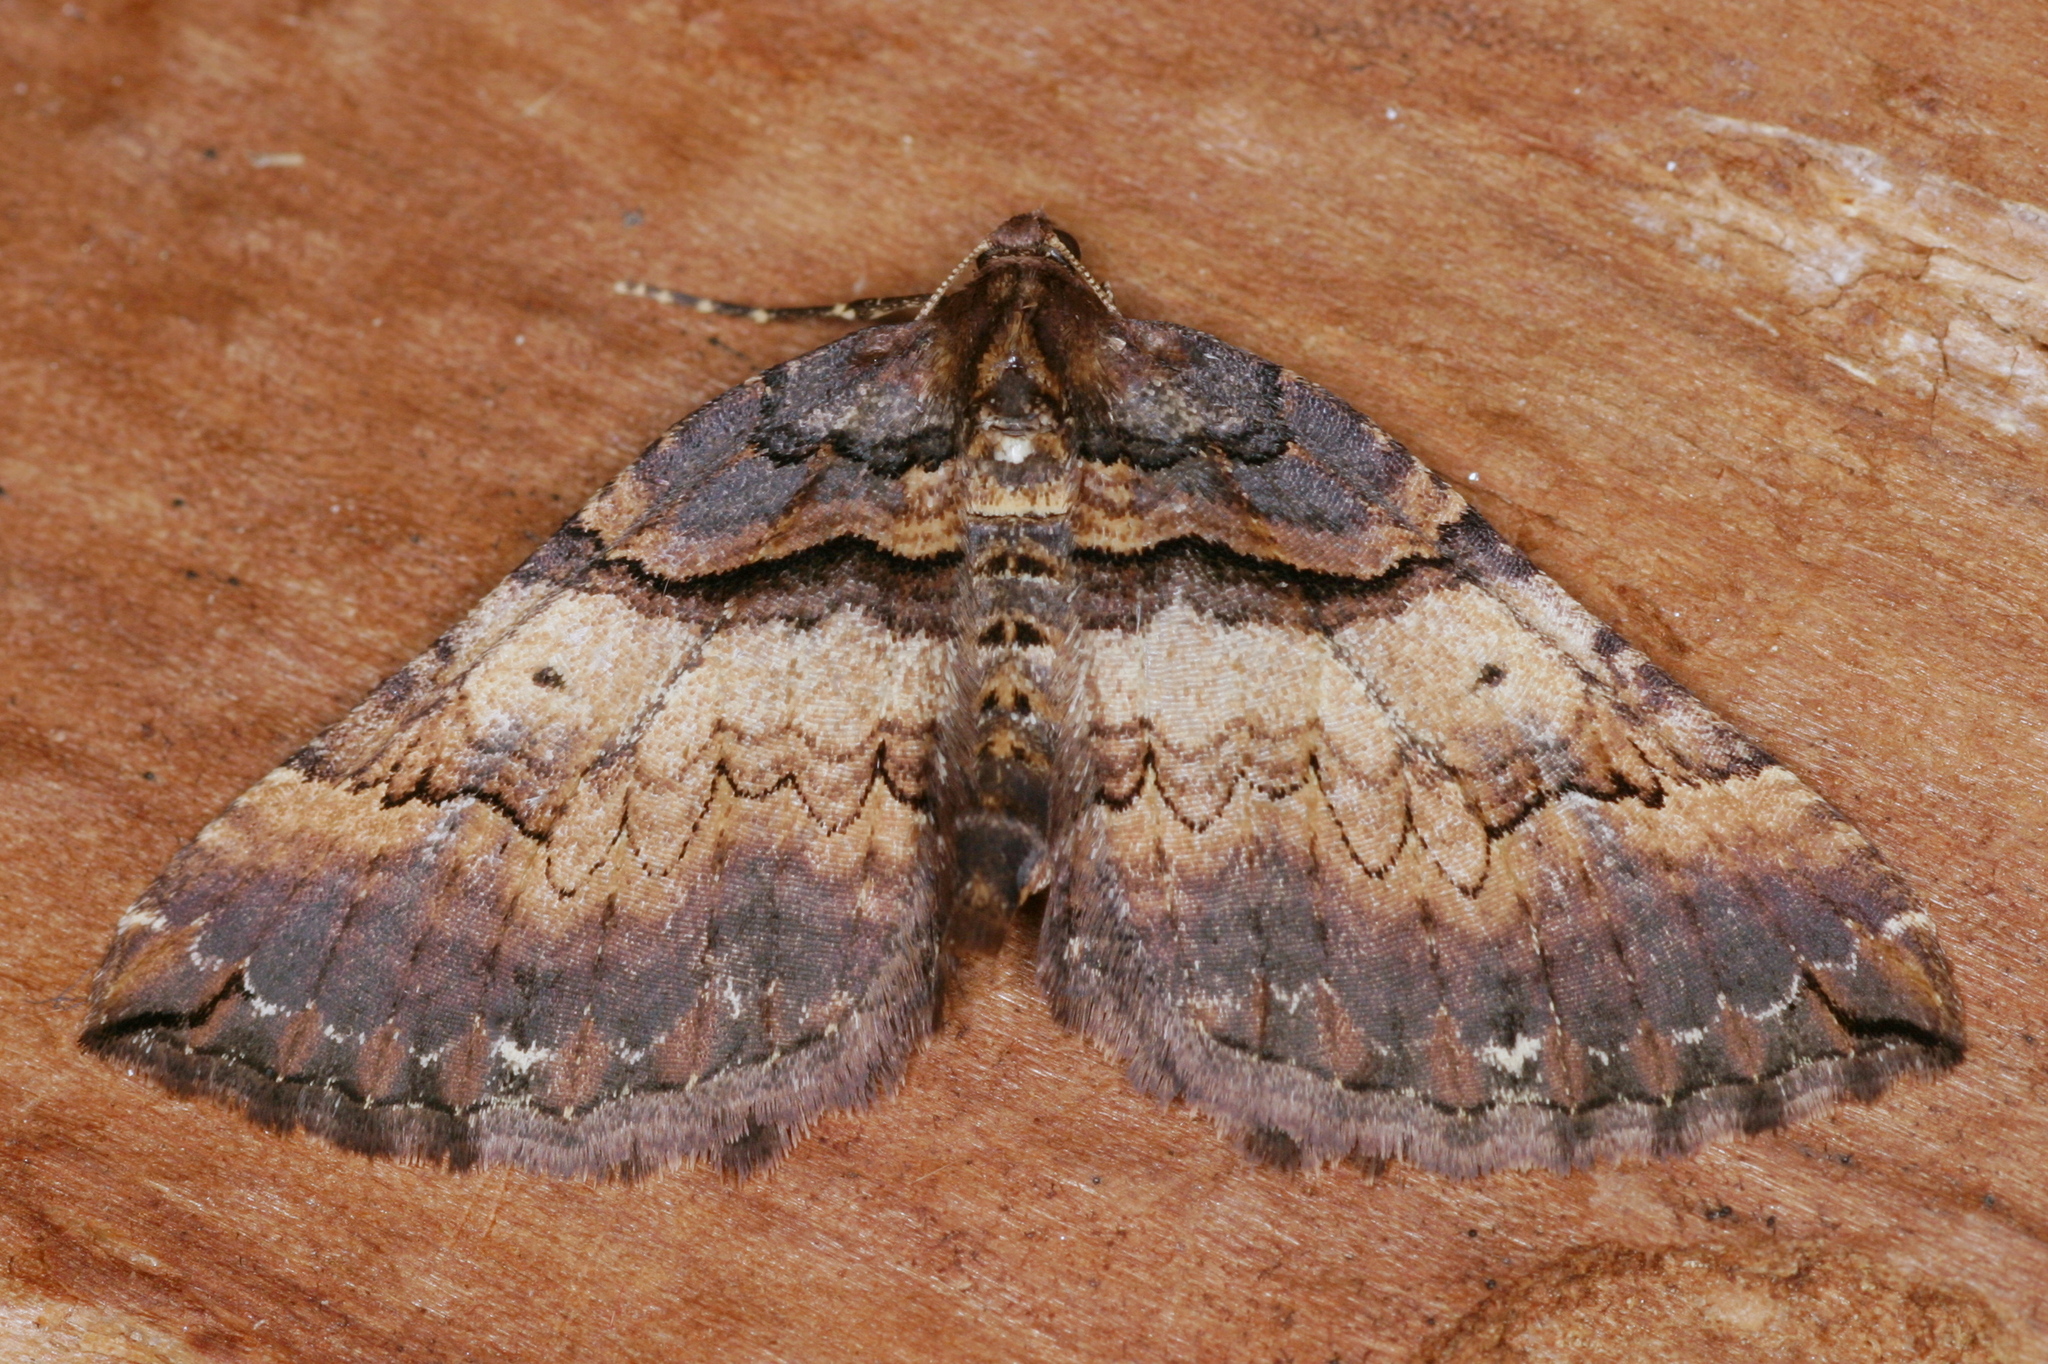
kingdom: Animalia
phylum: Arthropoda
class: Insecta
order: Lepidoptera
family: Geometridae
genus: Anticlea
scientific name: Anticlea badiata
